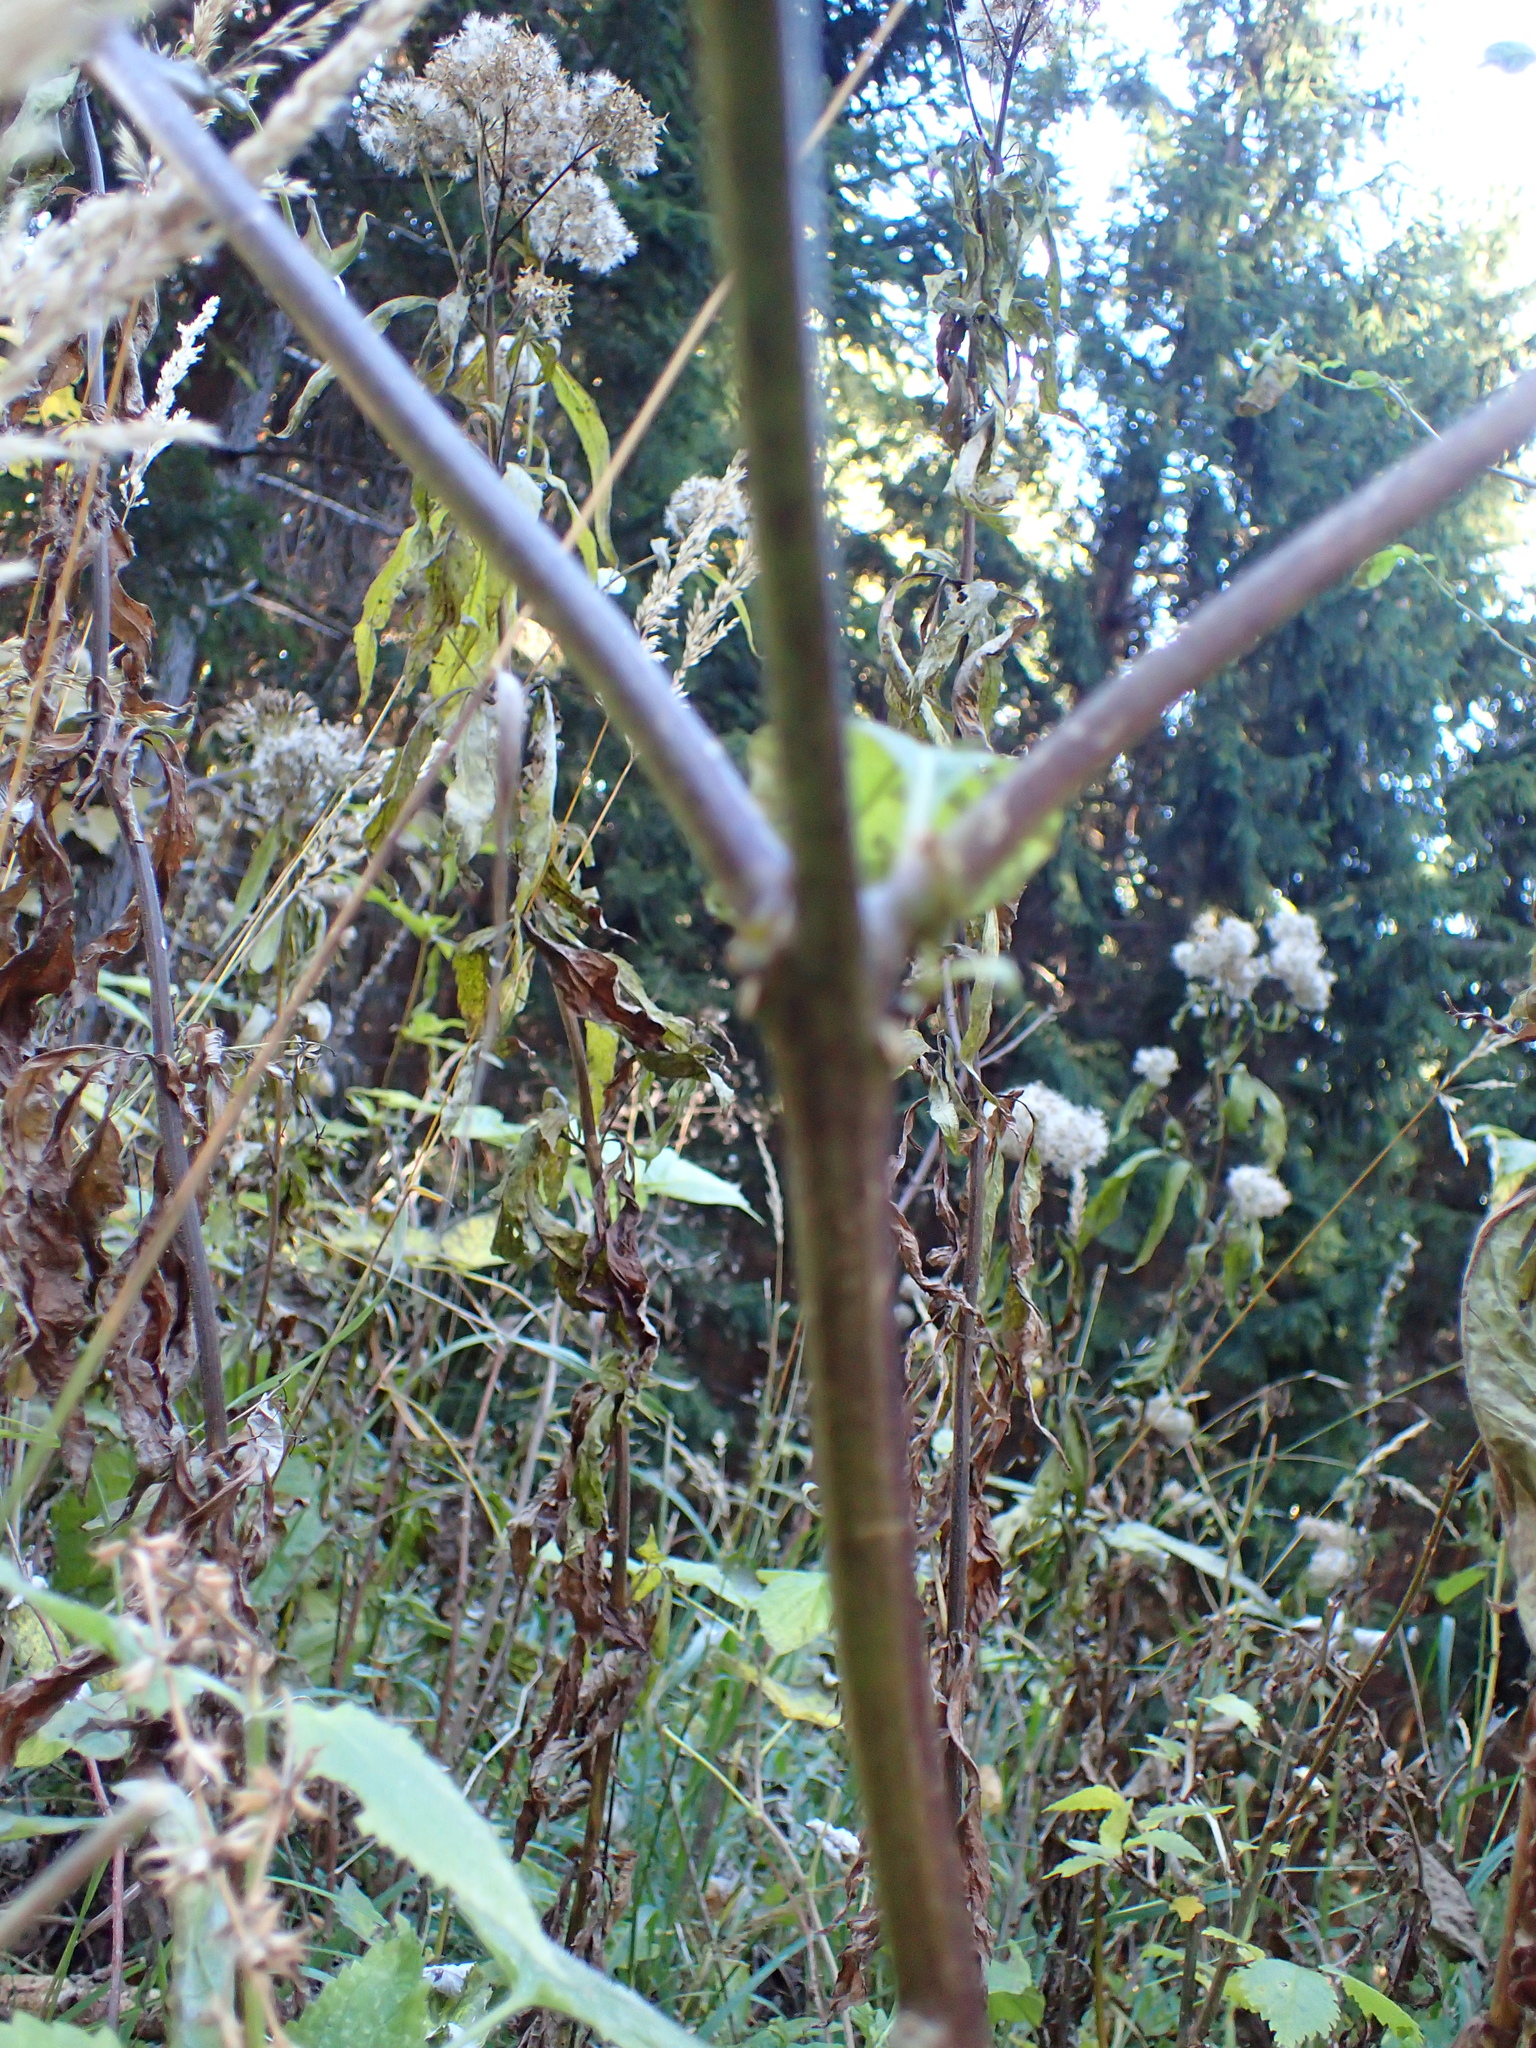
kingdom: Plantae
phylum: Tracheophyta
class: Magnoliopsida
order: Solanales
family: Solanaceae
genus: Atropa
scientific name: Atropa belladonna
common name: Deadly nightshade
